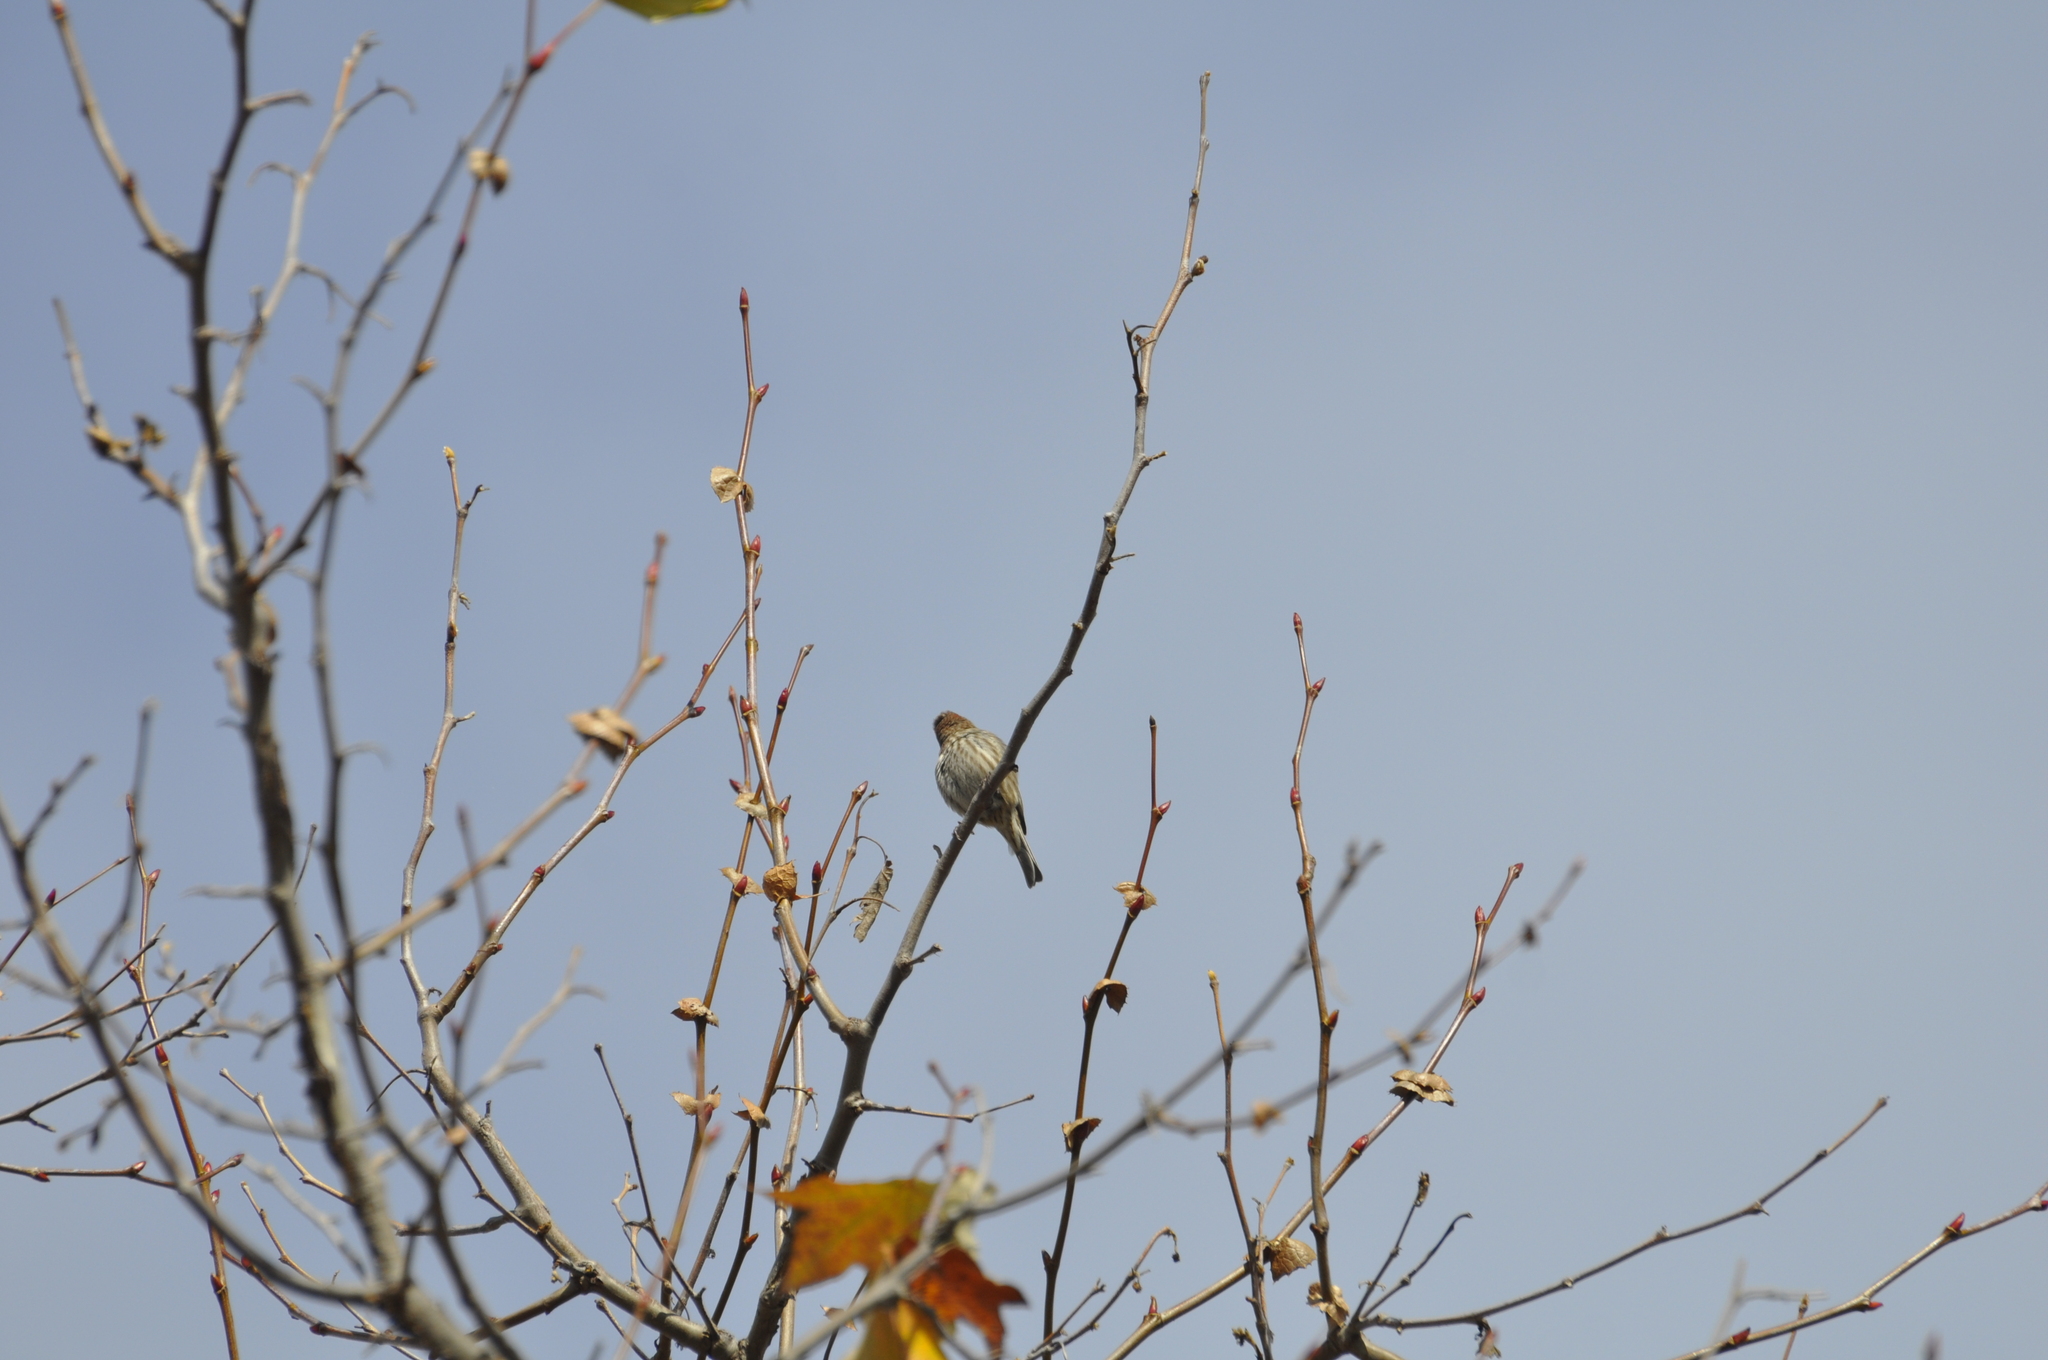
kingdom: Animalia
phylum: Chordata
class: Aves
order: Passeriformes
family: Fringillidae
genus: Haemorhous
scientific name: Haemorhous mexicanus
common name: House finch
